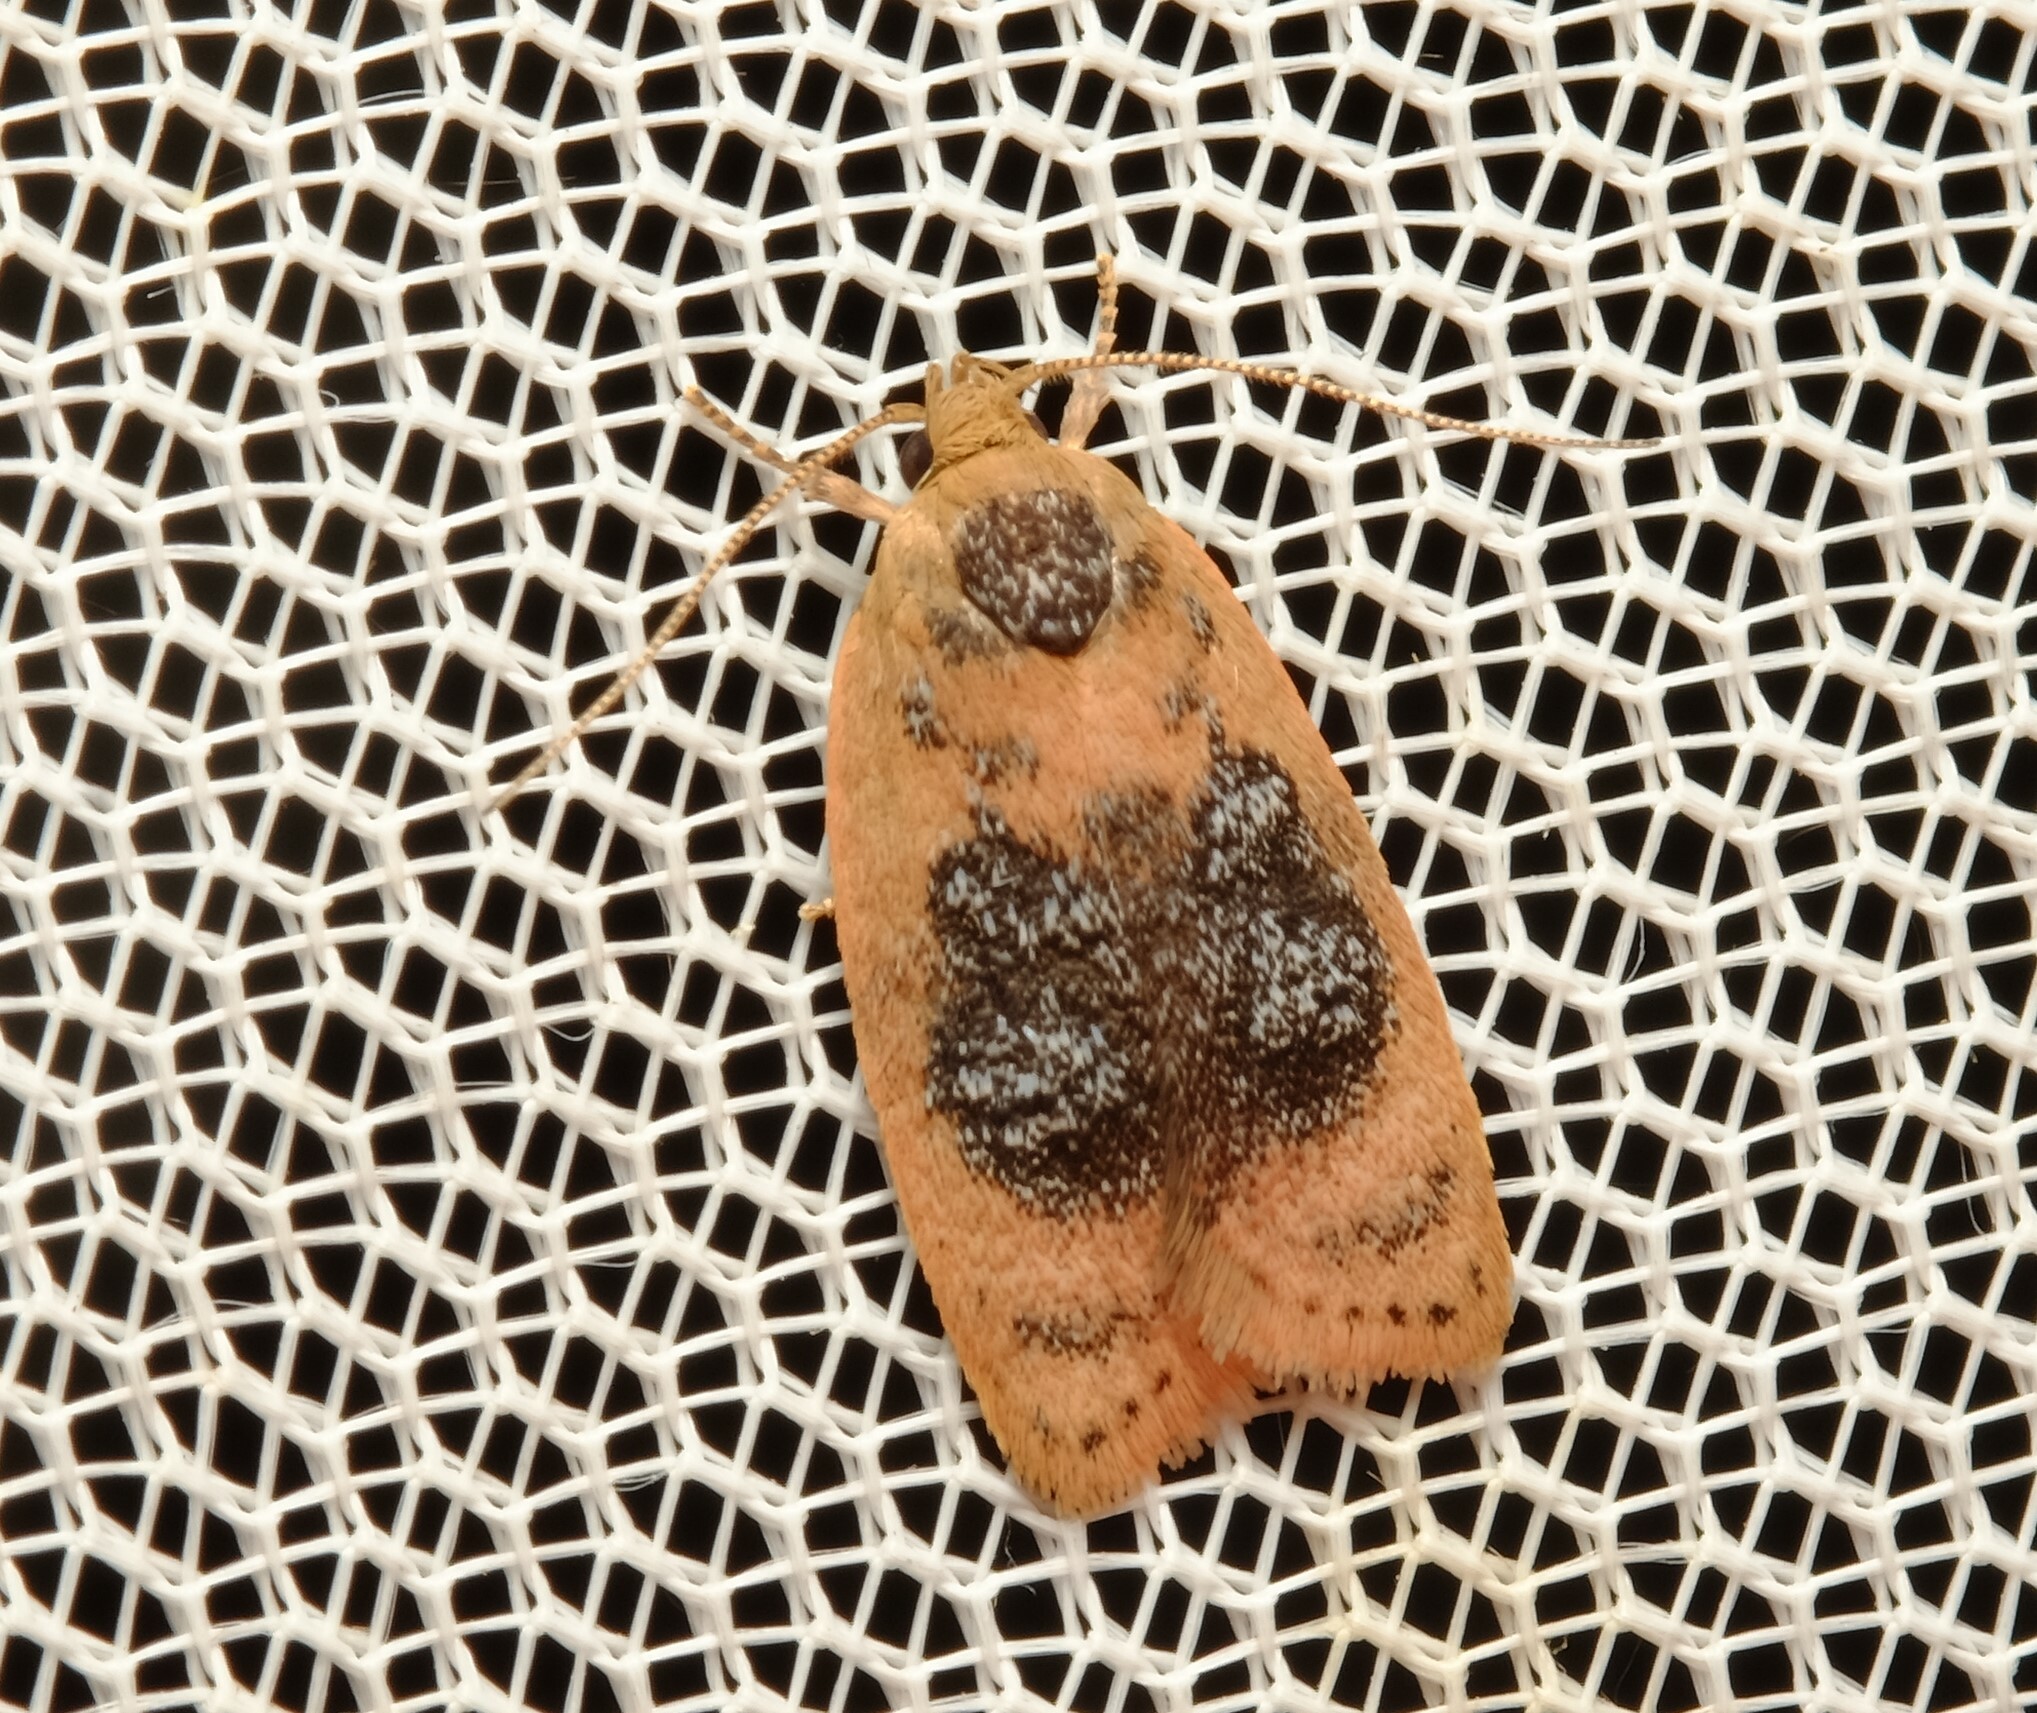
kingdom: Animalia
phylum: Arthropoda
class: Insecta
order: Lepidoptera
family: Oecophoridae
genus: Garrha
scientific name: Garrha ocellifera
